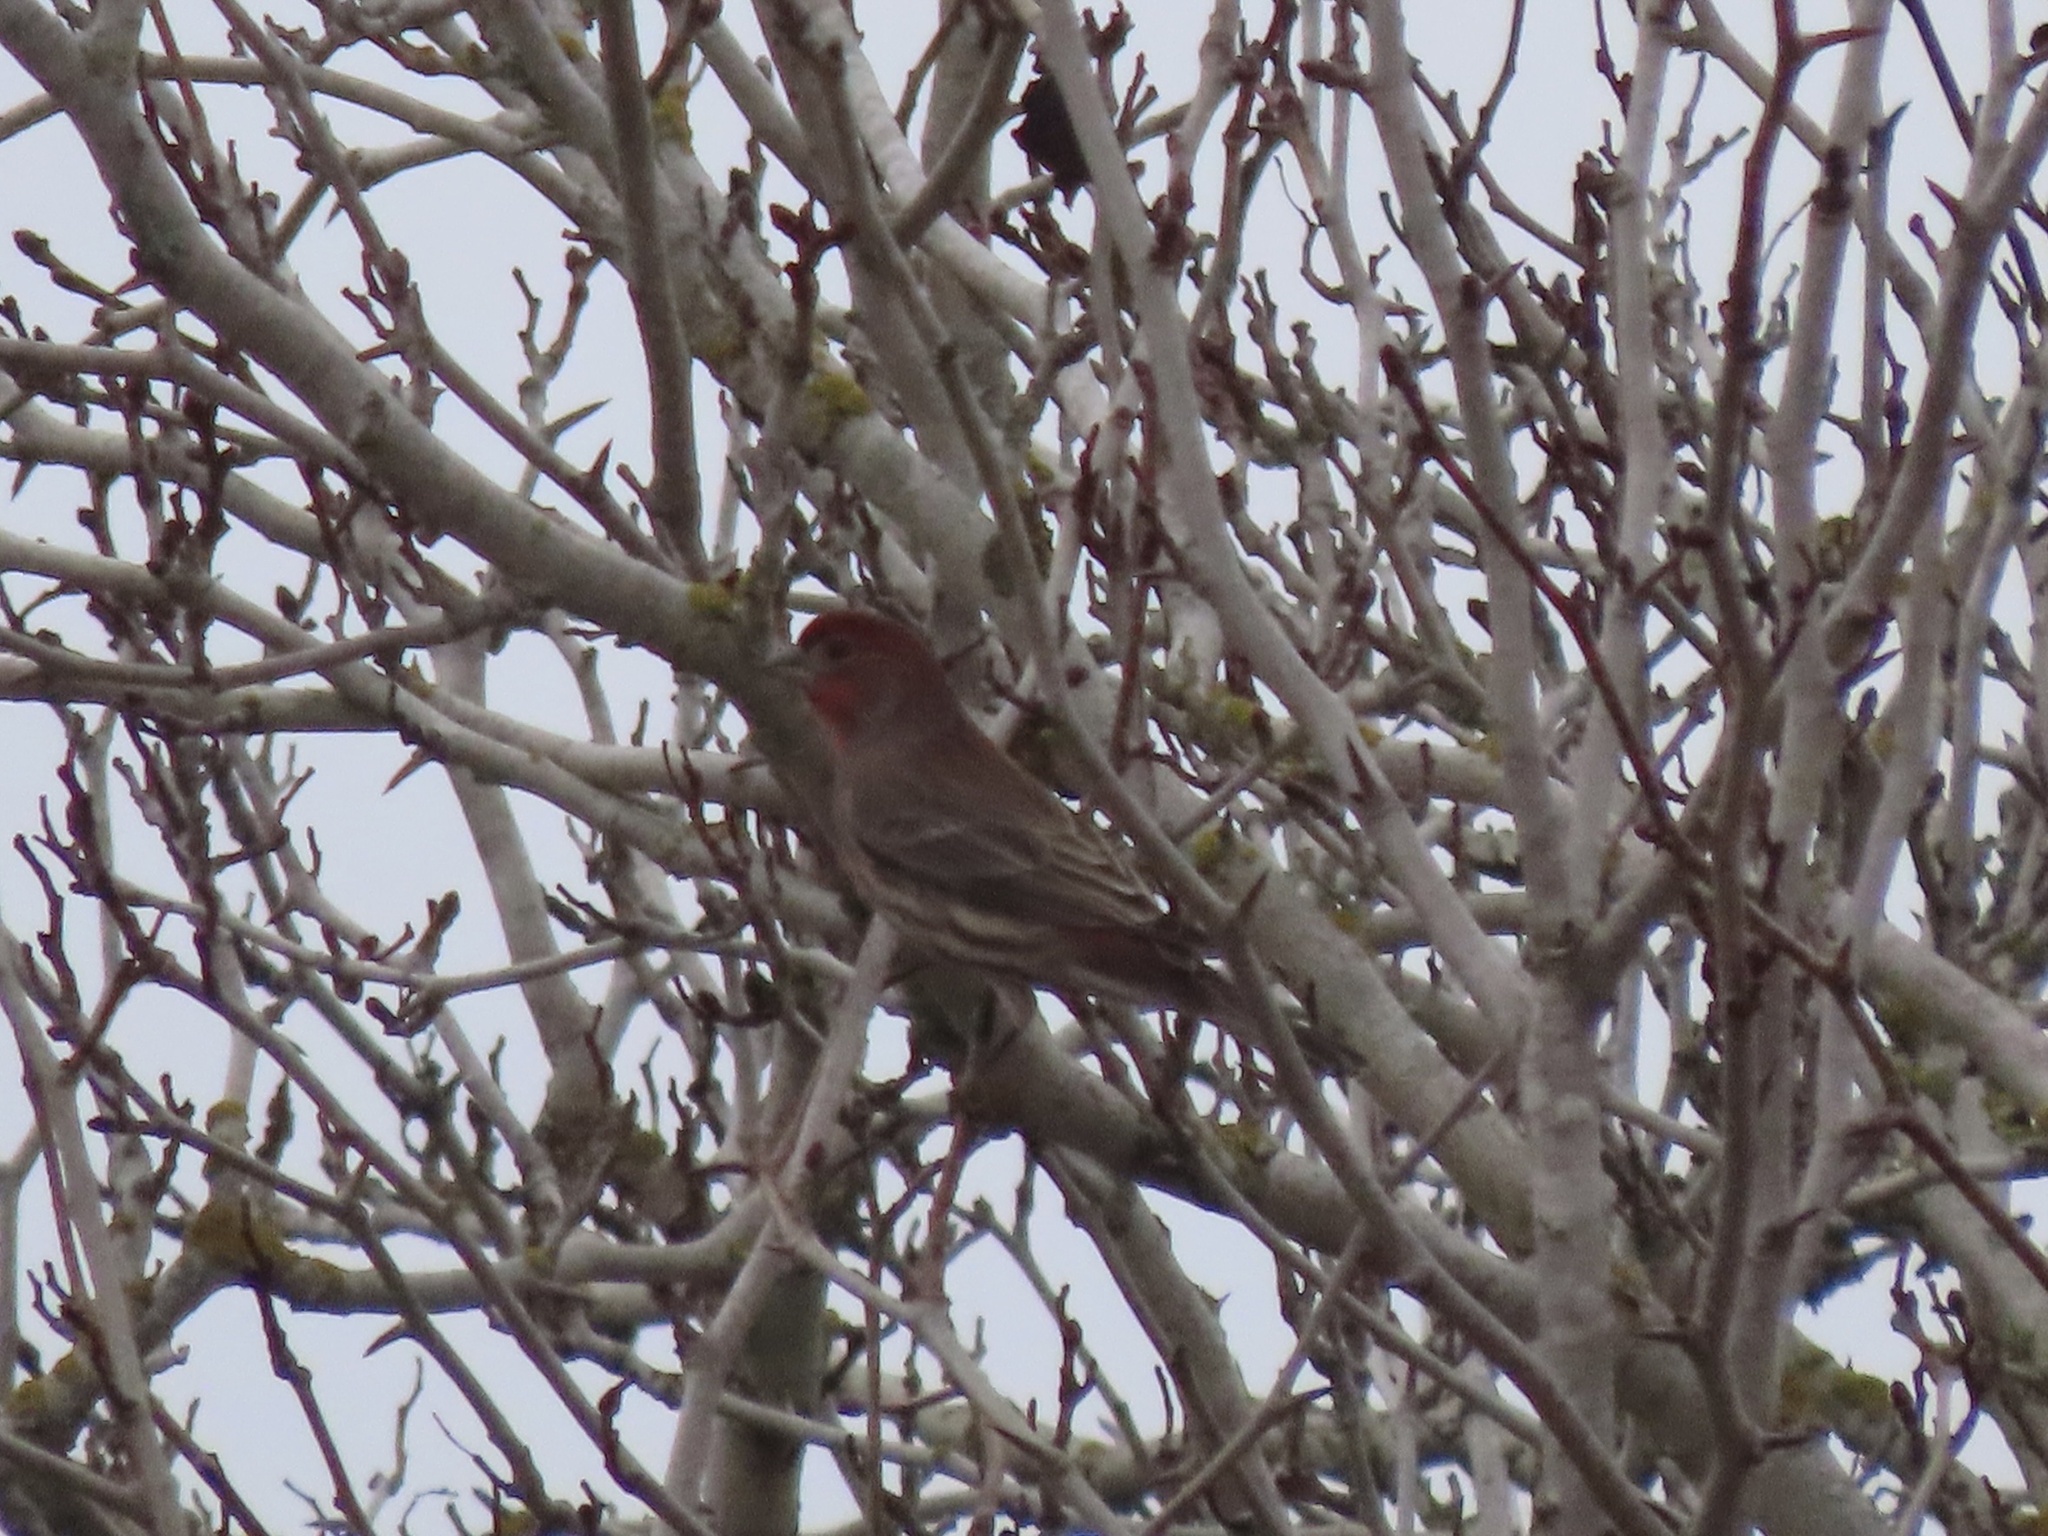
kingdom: Animalia
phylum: Chordata
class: Aves
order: Passeriformes
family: Fringillidae
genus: Haemorhous
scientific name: Haemorhous mexicanus
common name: House finch
